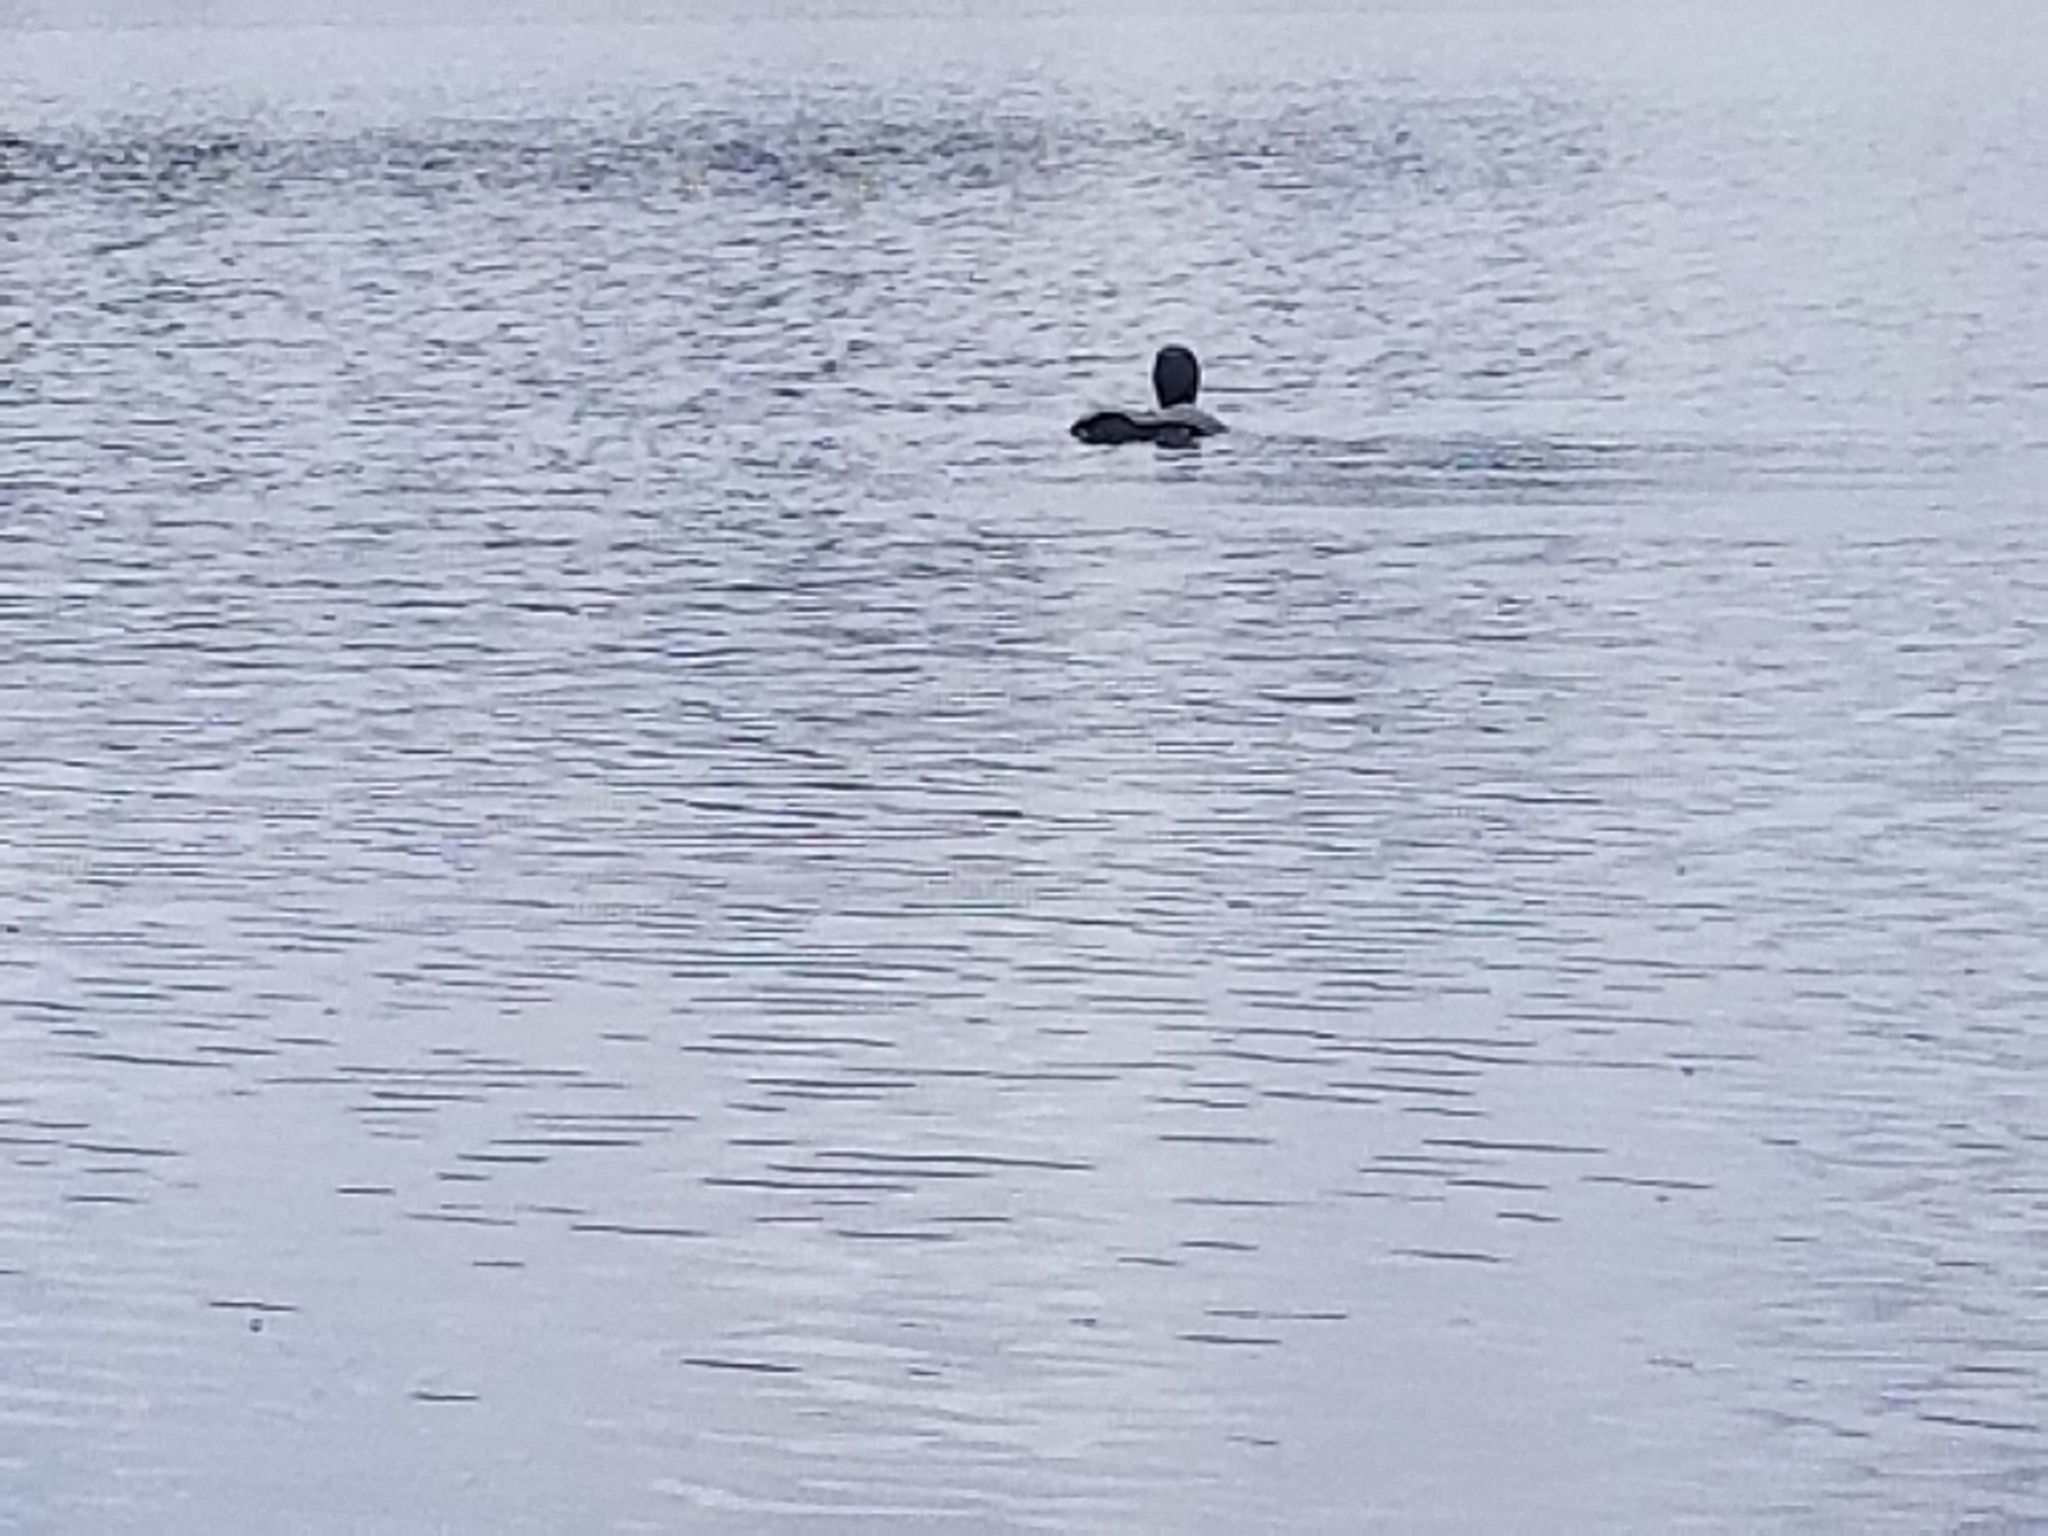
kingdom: Animalia
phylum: Chordata
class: Aves
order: Gaviiformes
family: Gaviidae
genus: Gavia
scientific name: Gavia immer
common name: Common loon
